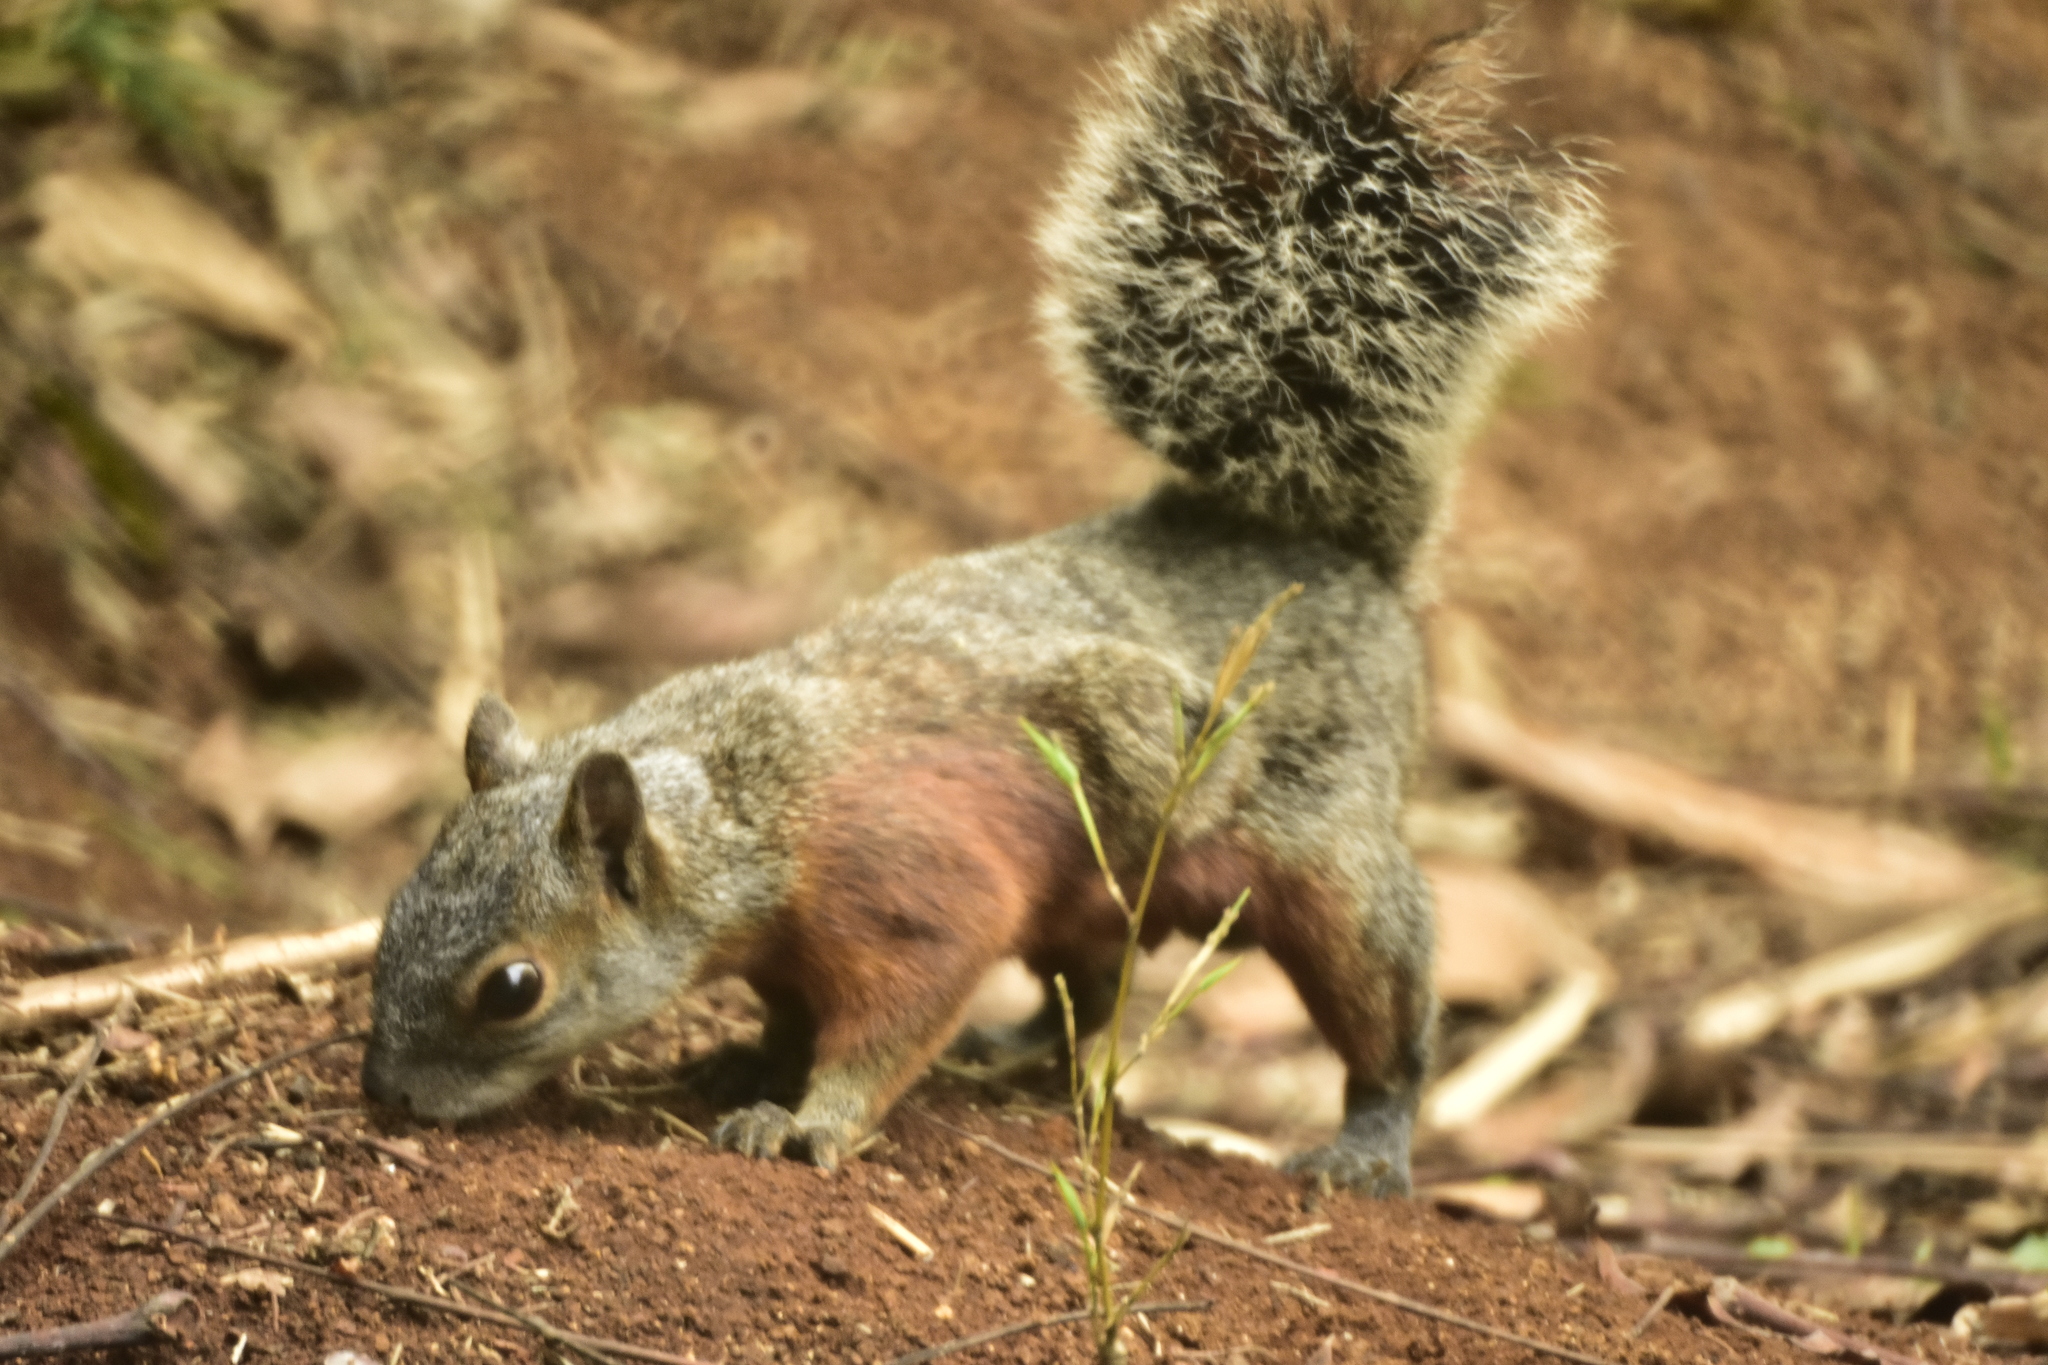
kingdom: Animalia
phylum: Chordata
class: Mammalia
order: Rodentia
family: Sciuridae
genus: Sciurus
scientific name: Sciurus aureogaster
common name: Red-bellied squirrel
